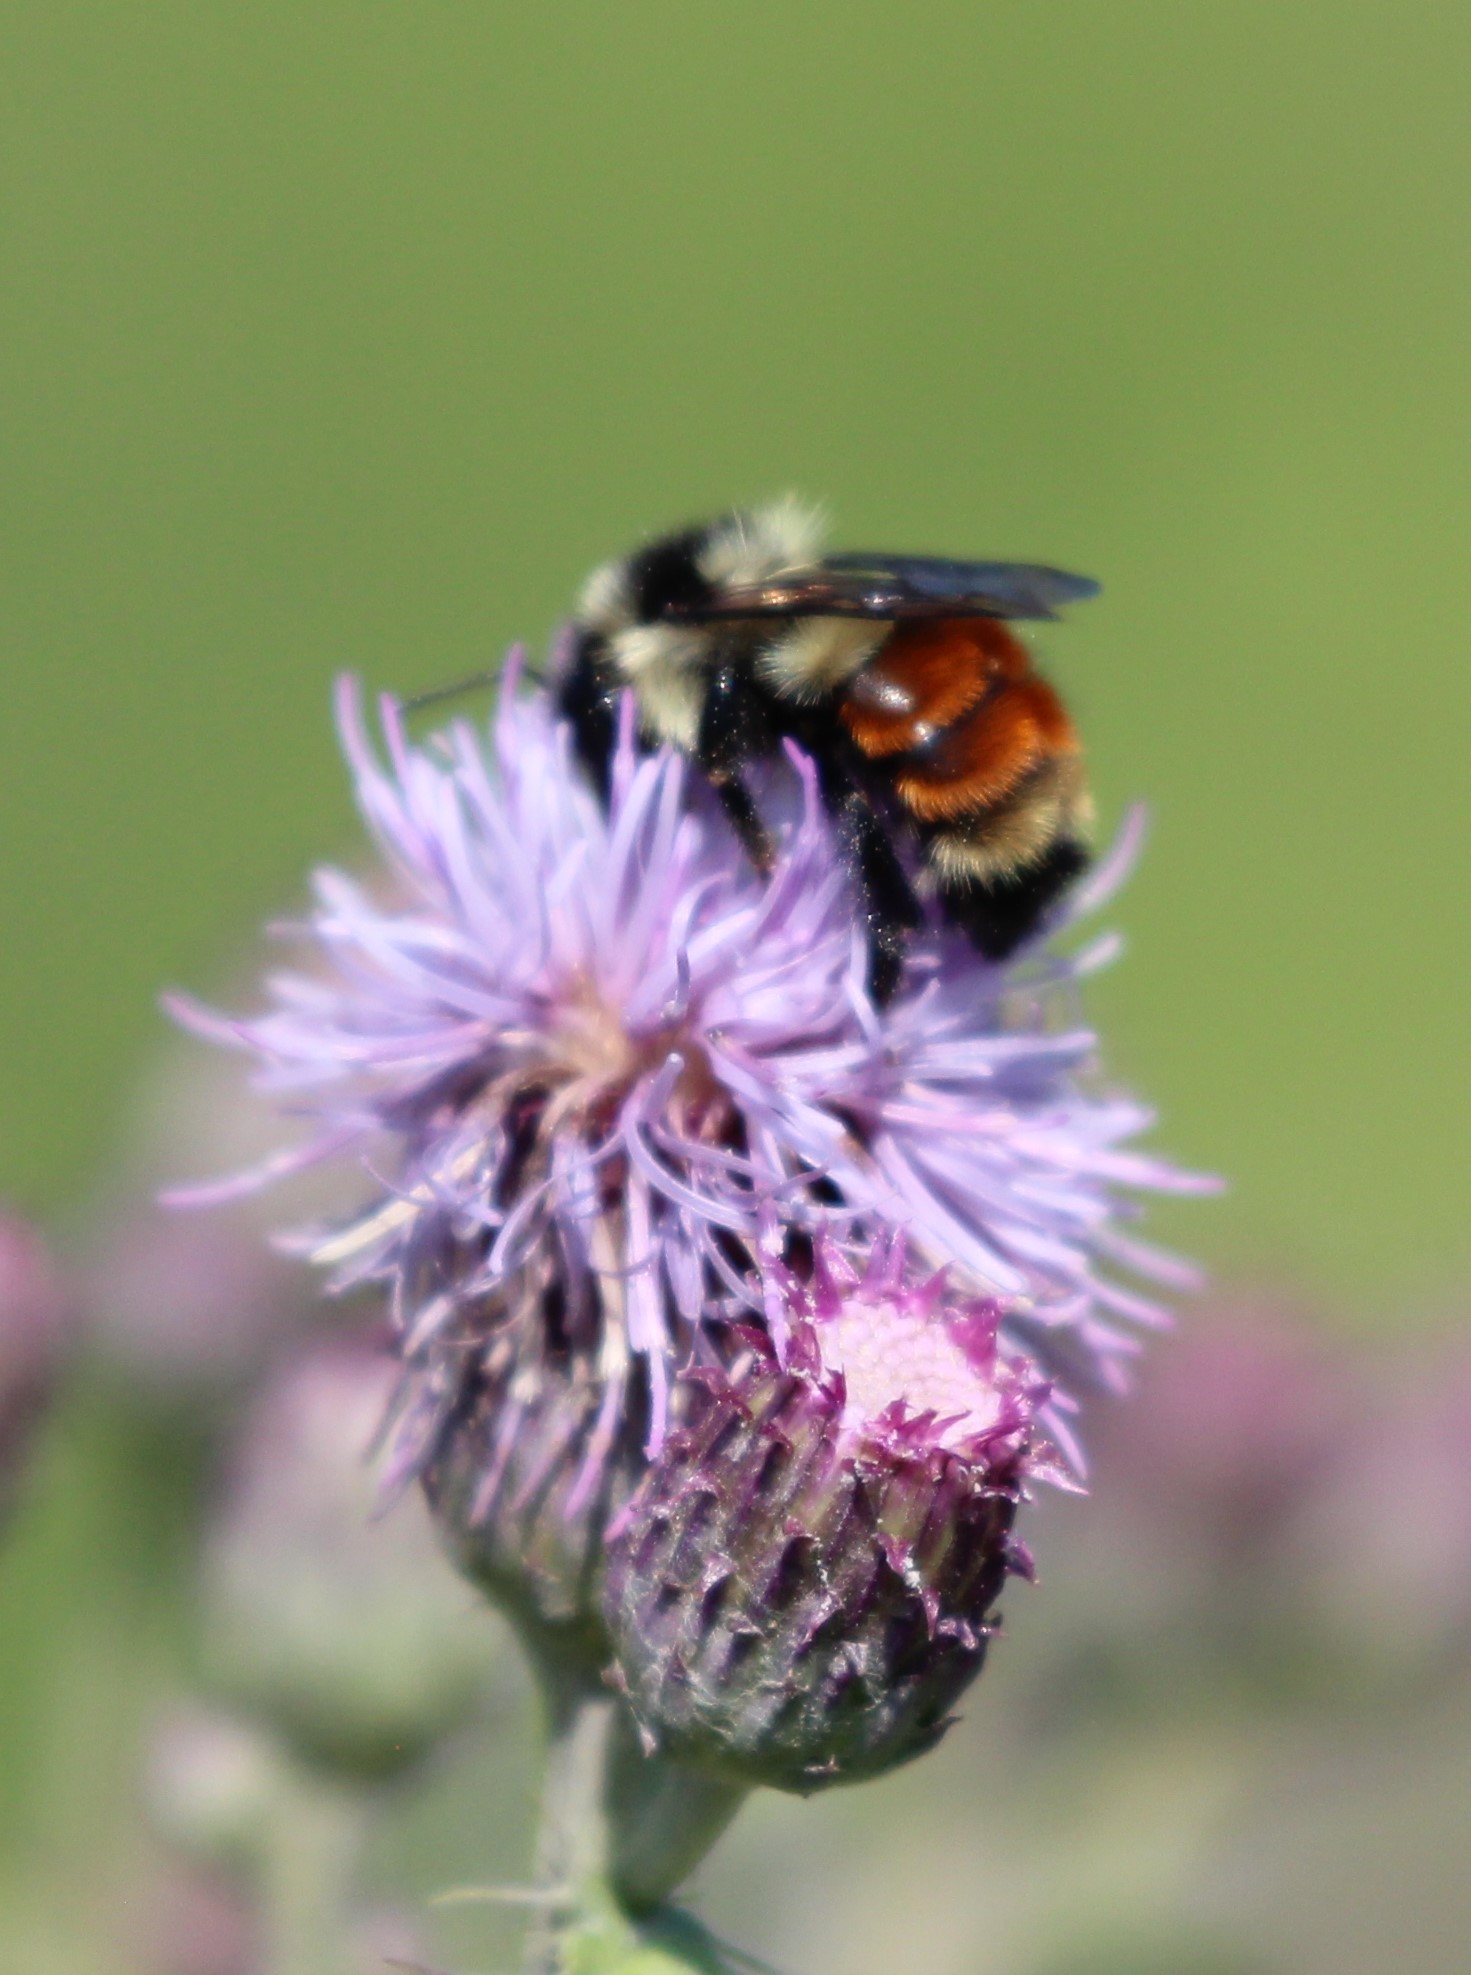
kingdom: Animalia
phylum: Arthropoda
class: Insecta
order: Hymenoptera
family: Apidae
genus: Bombus
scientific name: Bombus ternarius
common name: Tri-colored bumble bee
